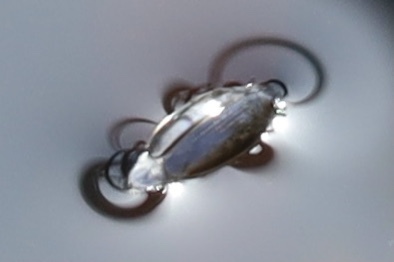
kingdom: Animalia
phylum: Arthropoda
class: Insecta
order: Coleoptera
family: Gyrinidae
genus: Gyrinus
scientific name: Gyrinus
